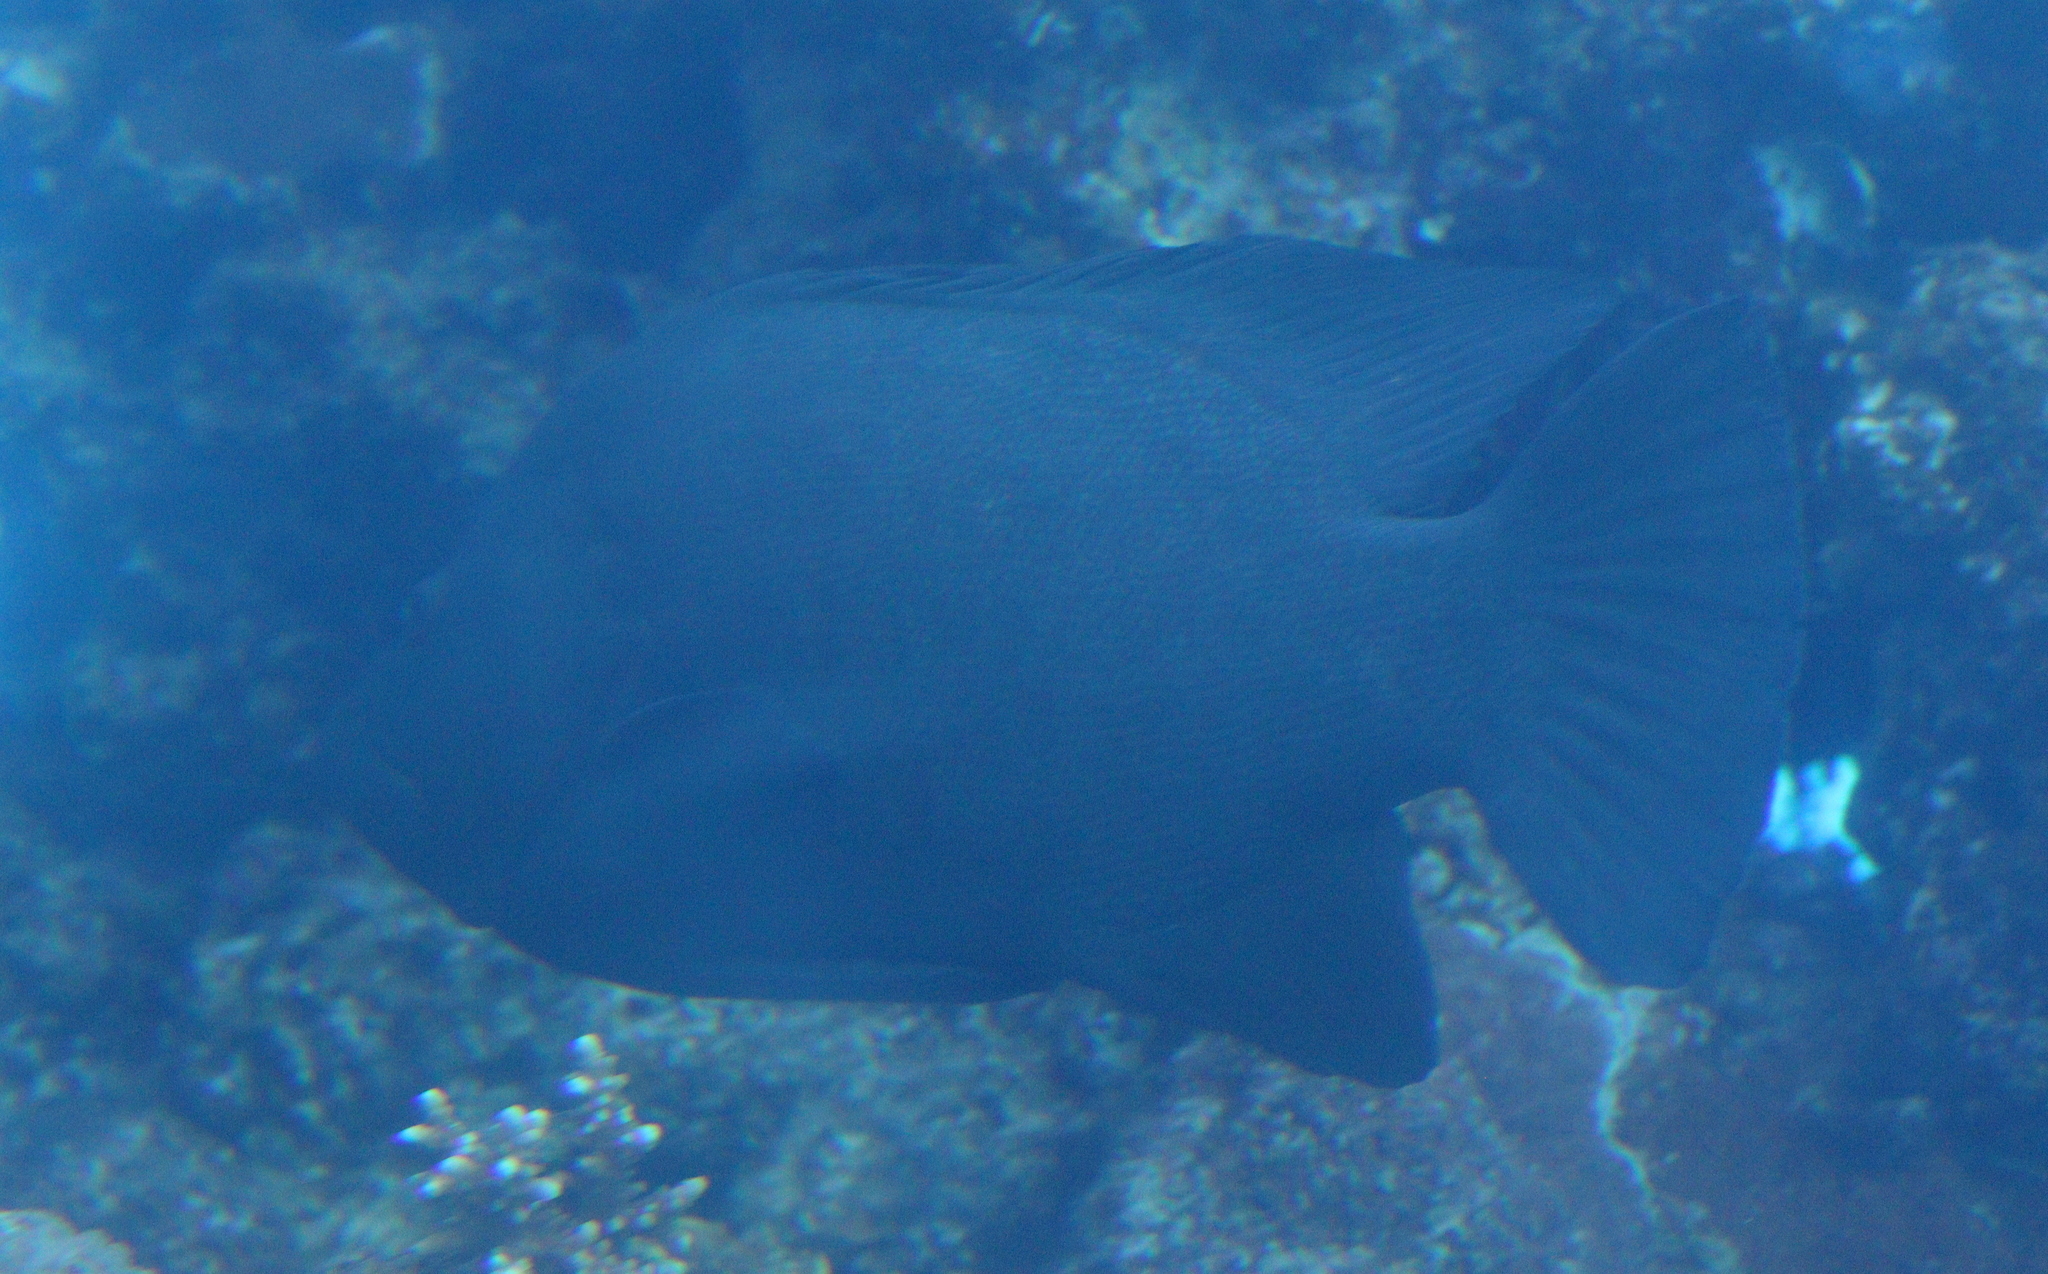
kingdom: Animalia
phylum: Chordata
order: Perciformes
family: Serranidae
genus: Aethaloperca
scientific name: Aethaloperca rogaa
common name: Redmouth grouper
